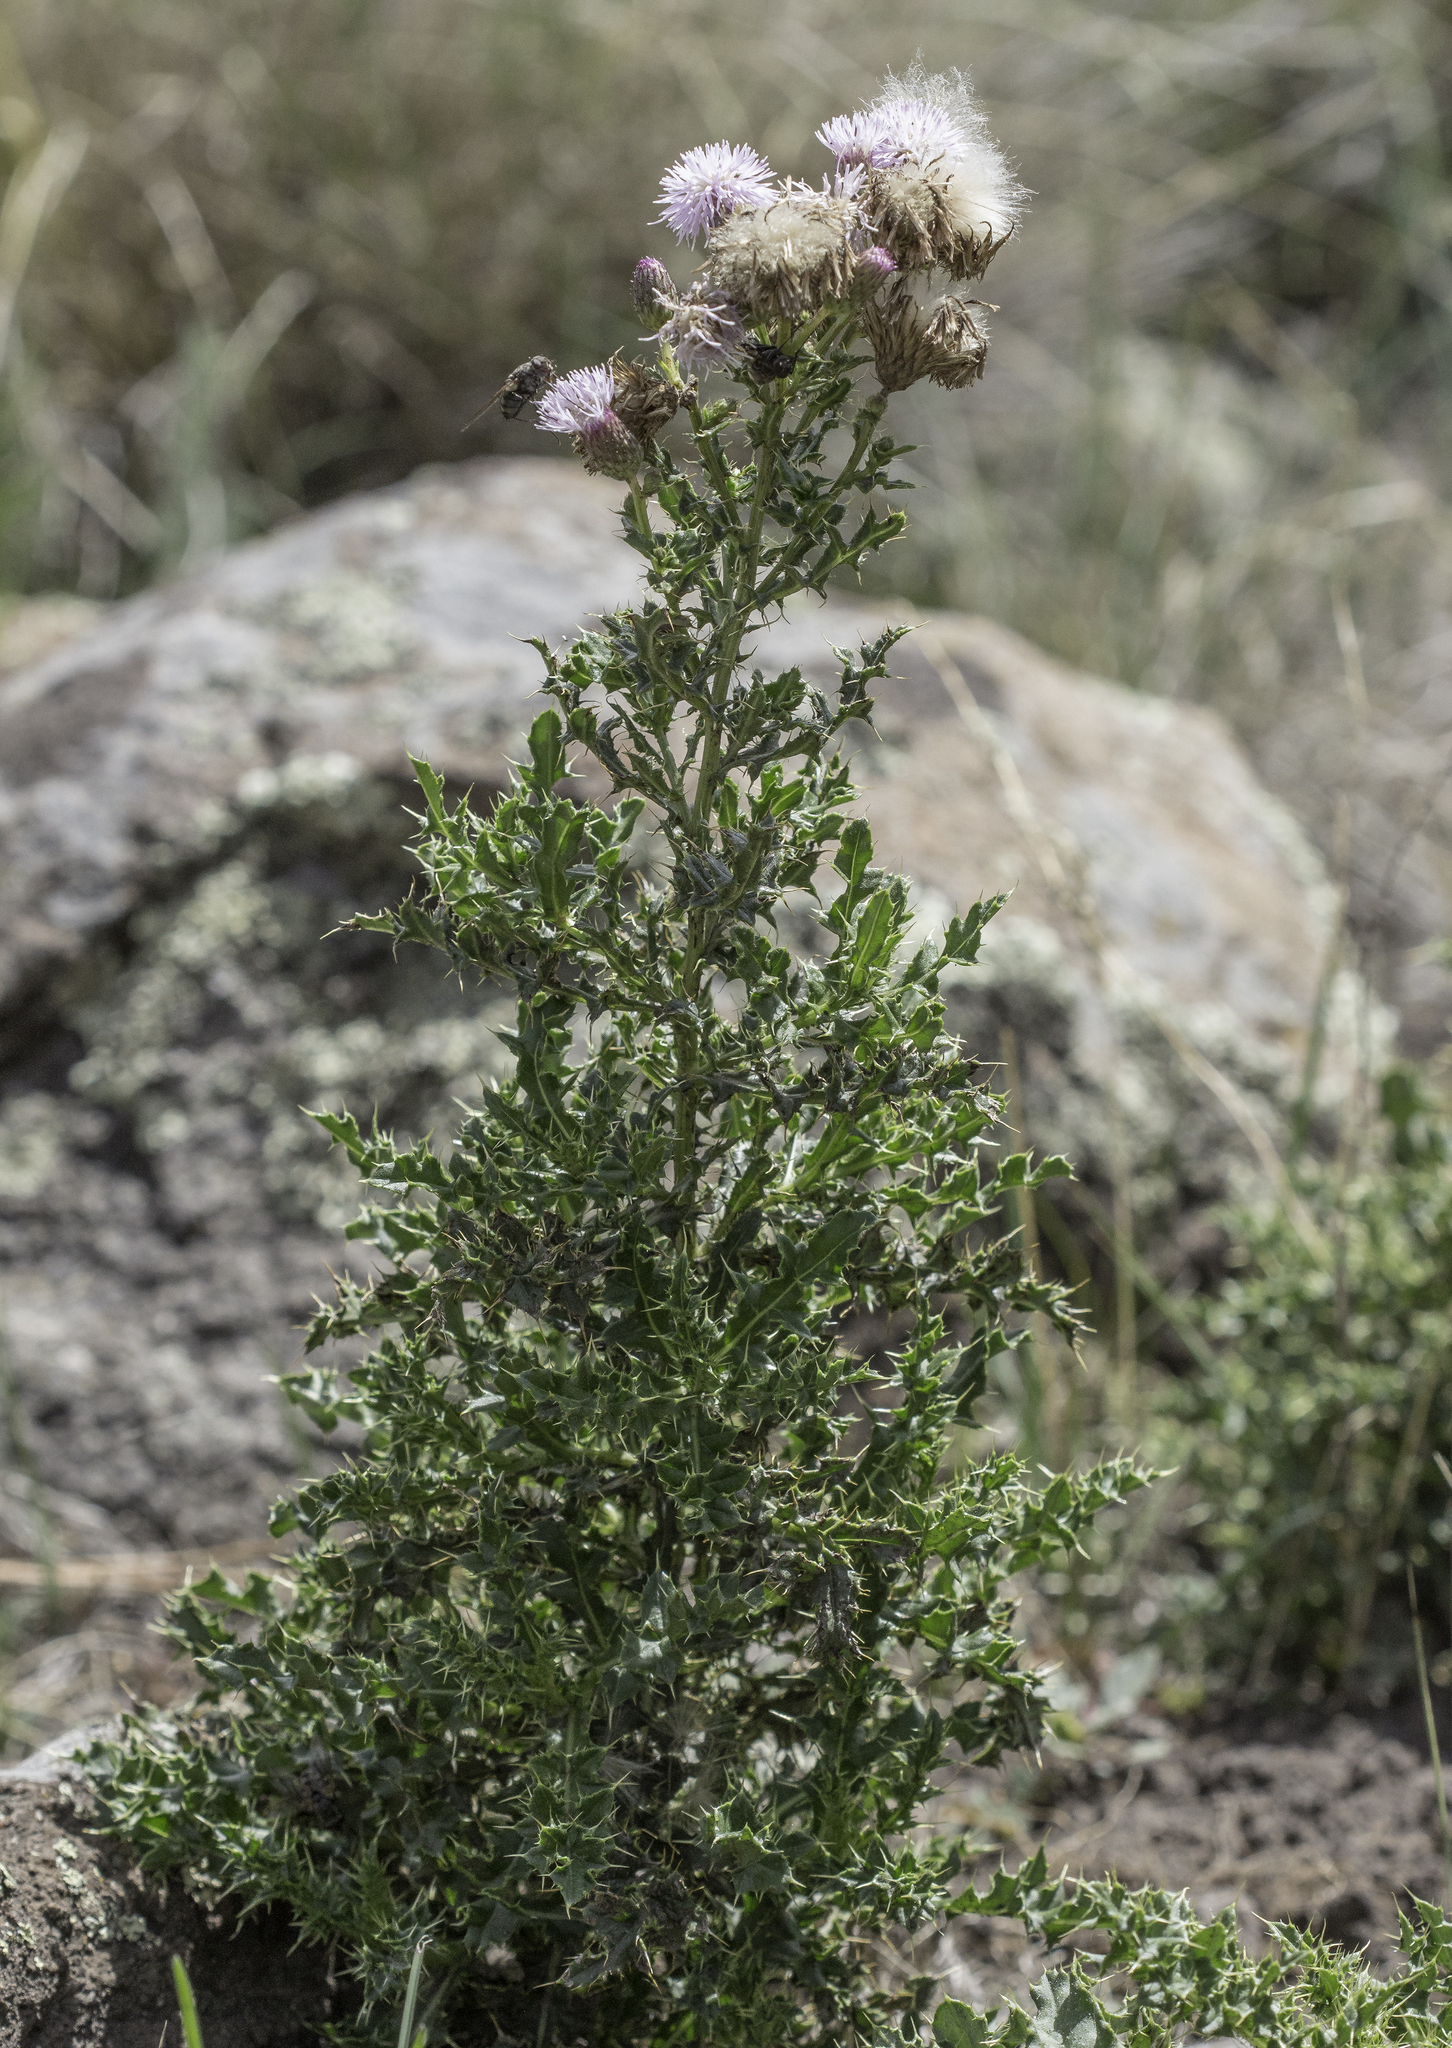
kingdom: Plantae
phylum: Tracheophyta
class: Magnoliopsida
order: Asterales
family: Asteraceae
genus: Cirsium
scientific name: Cirsium arvense
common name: Creeping thistle
